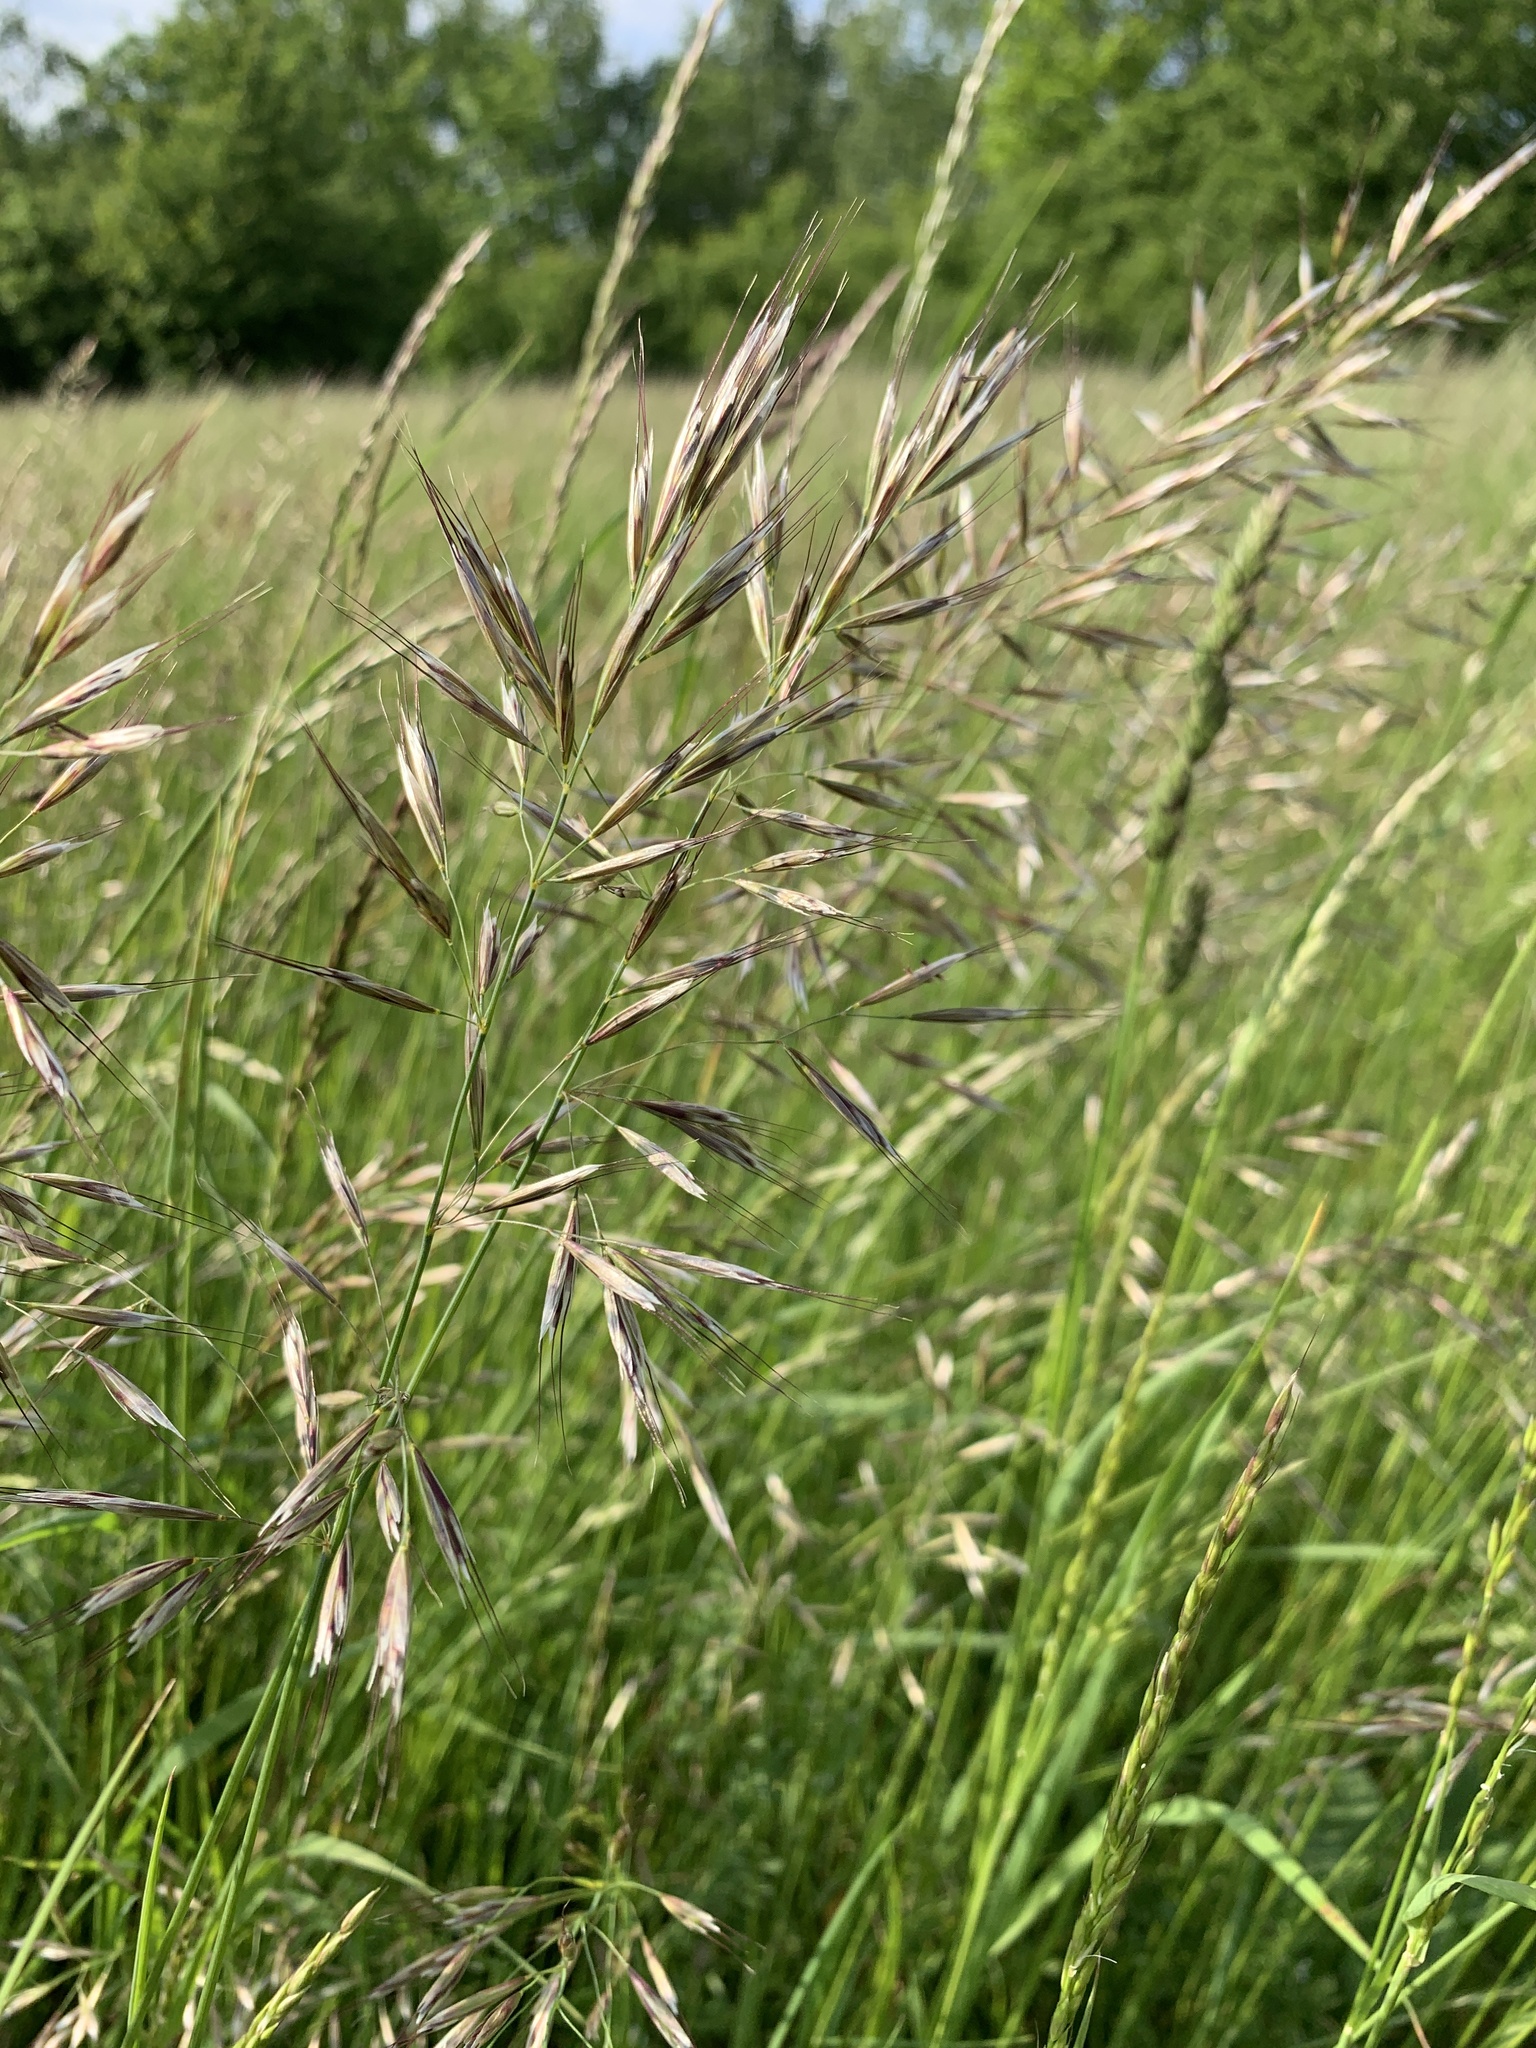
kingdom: Plantae
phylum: Tracheophyta
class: Liliopsida
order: Poales
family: Poaceae
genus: Avenula
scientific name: Avenula pubescens
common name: Downy alpine oatgrass
